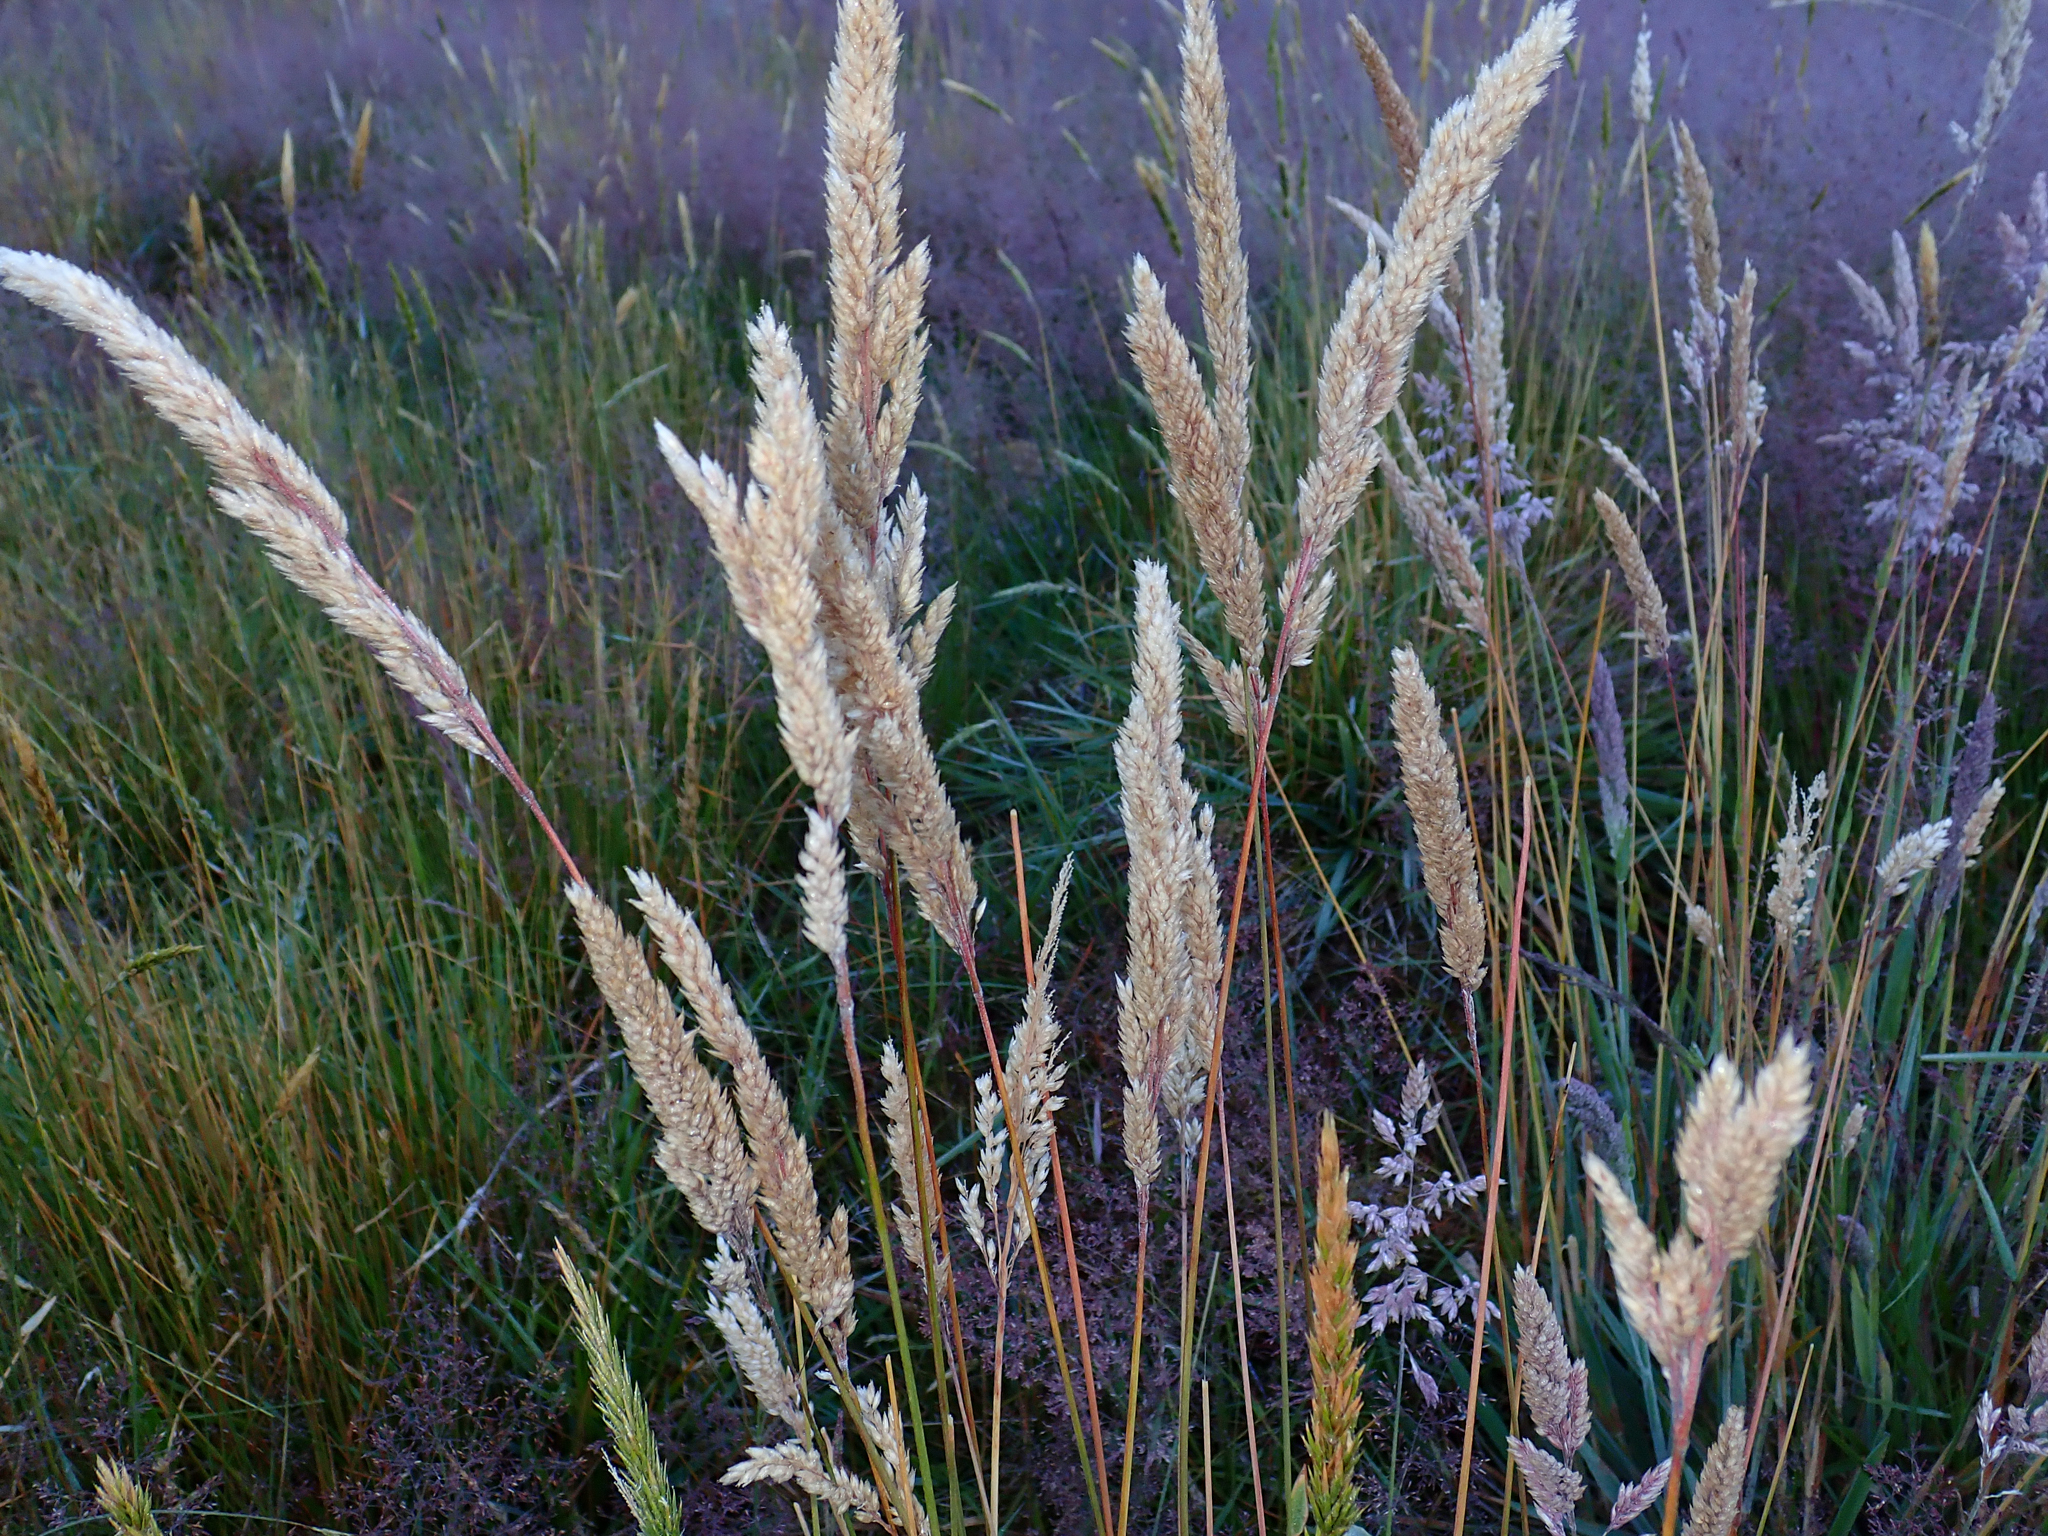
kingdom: Plantae
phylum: Tracheophyta
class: Liliopsida
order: Poales
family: Poaceae
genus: Holcus
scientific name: Holcus lanatus
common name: Yorkshire-fog
